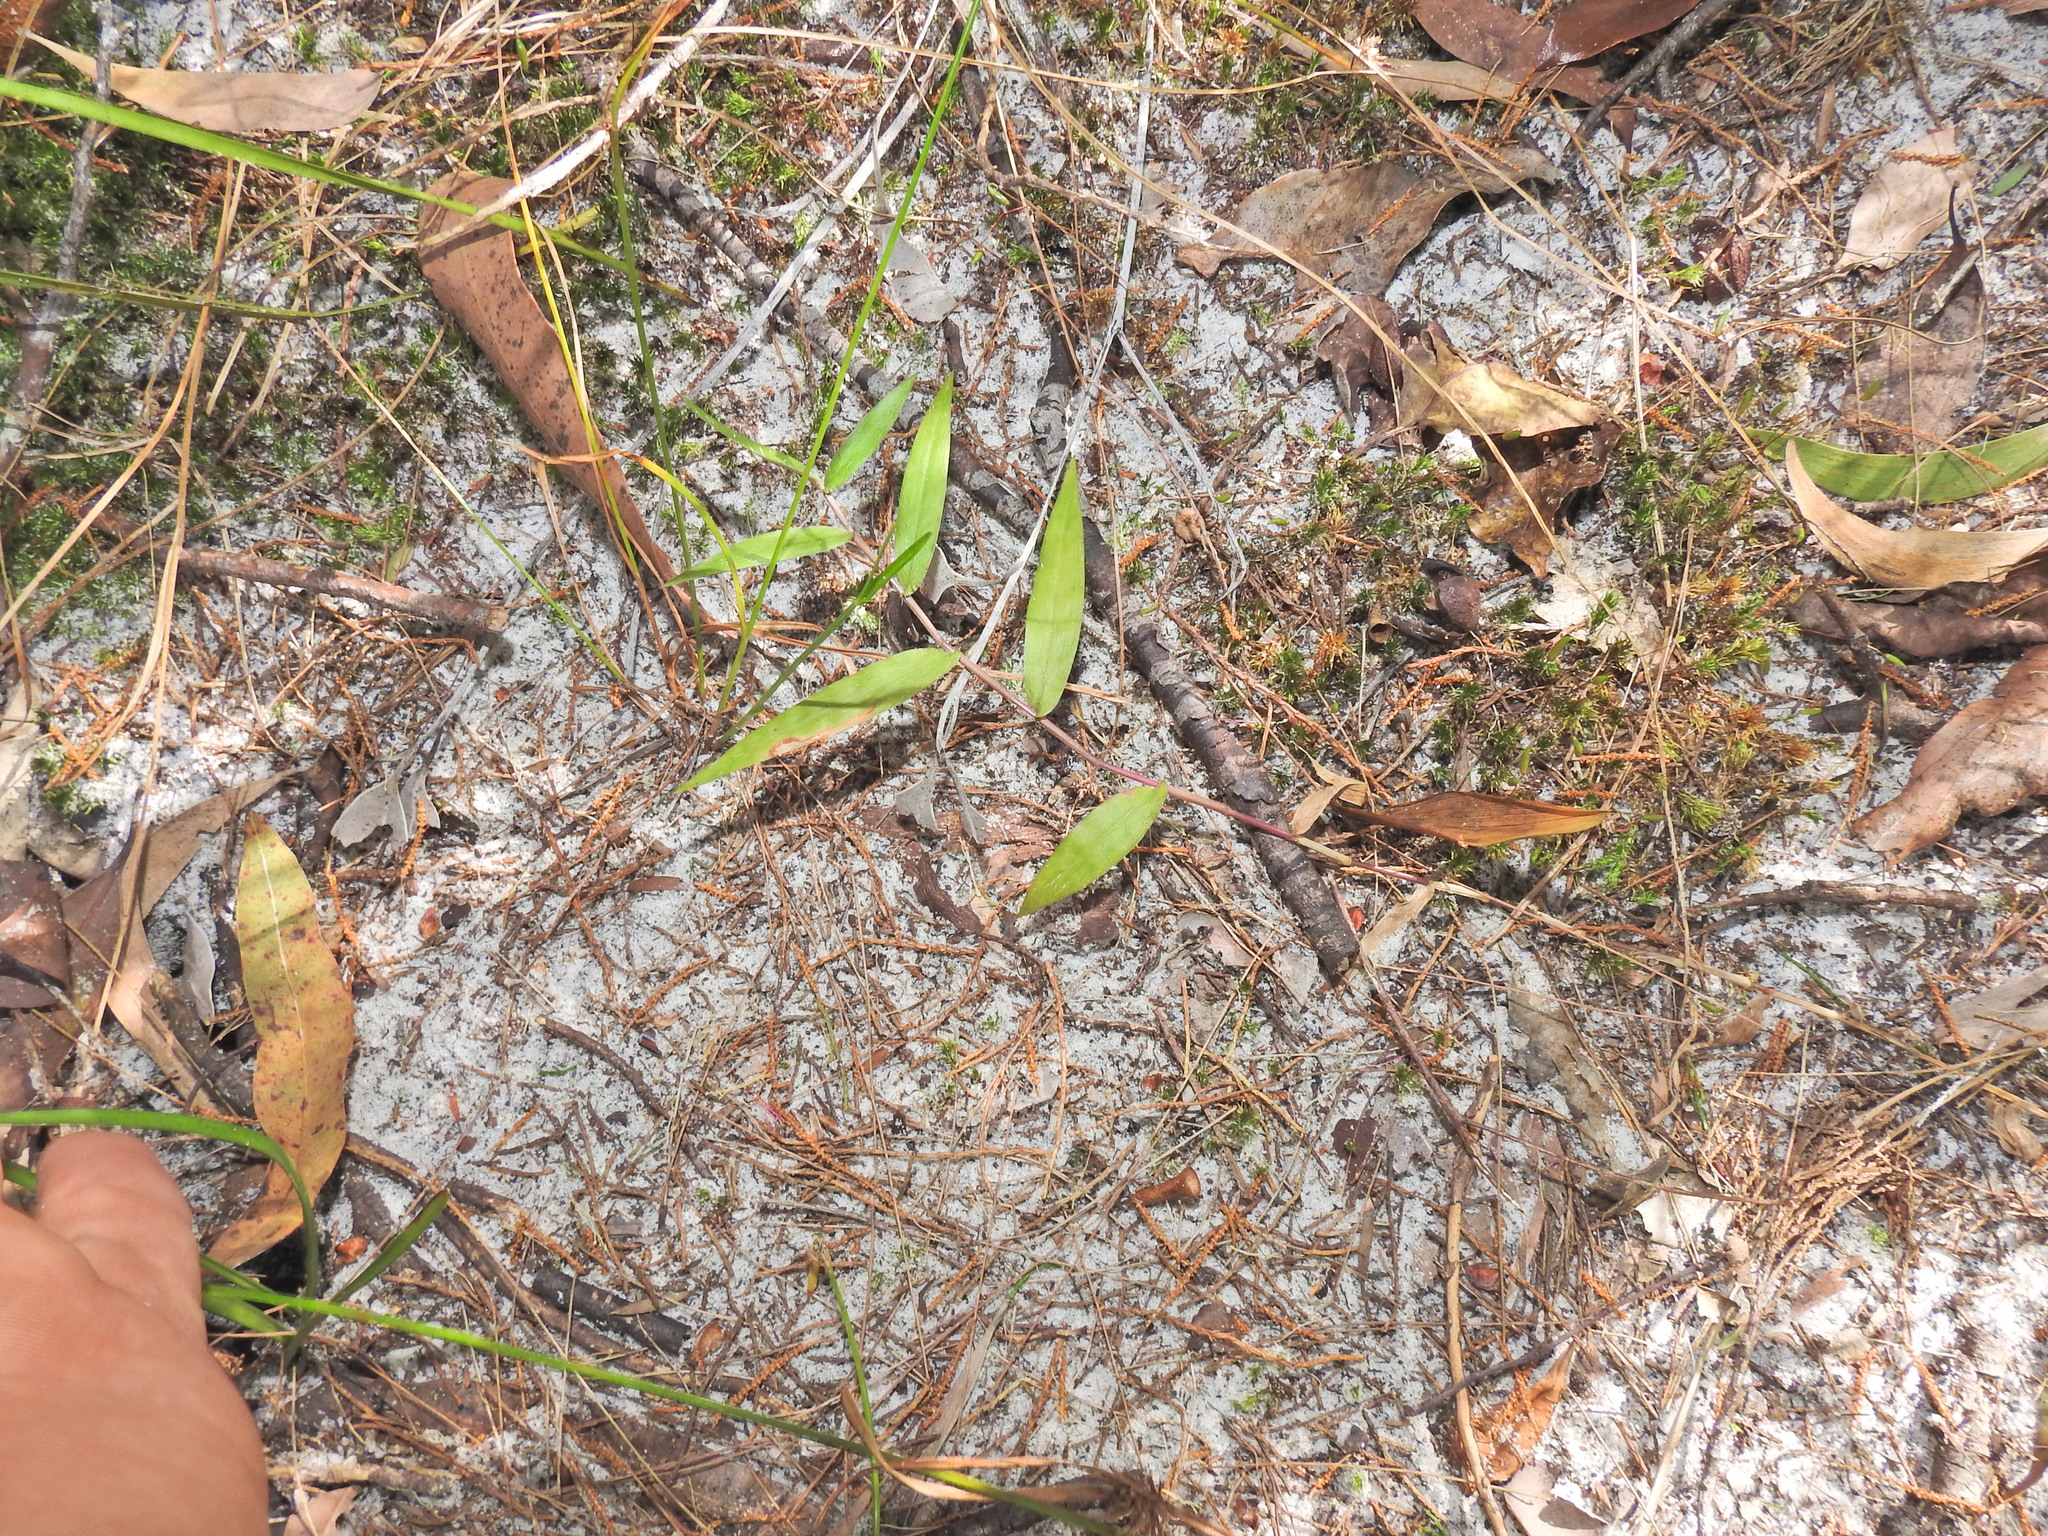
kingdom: Plantae
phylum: Tracheophyta
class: Liliopsida
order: Poales
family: Poaceae
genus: Oplismenus
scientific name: Oplismenus hirtellus
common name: Basketgrass
